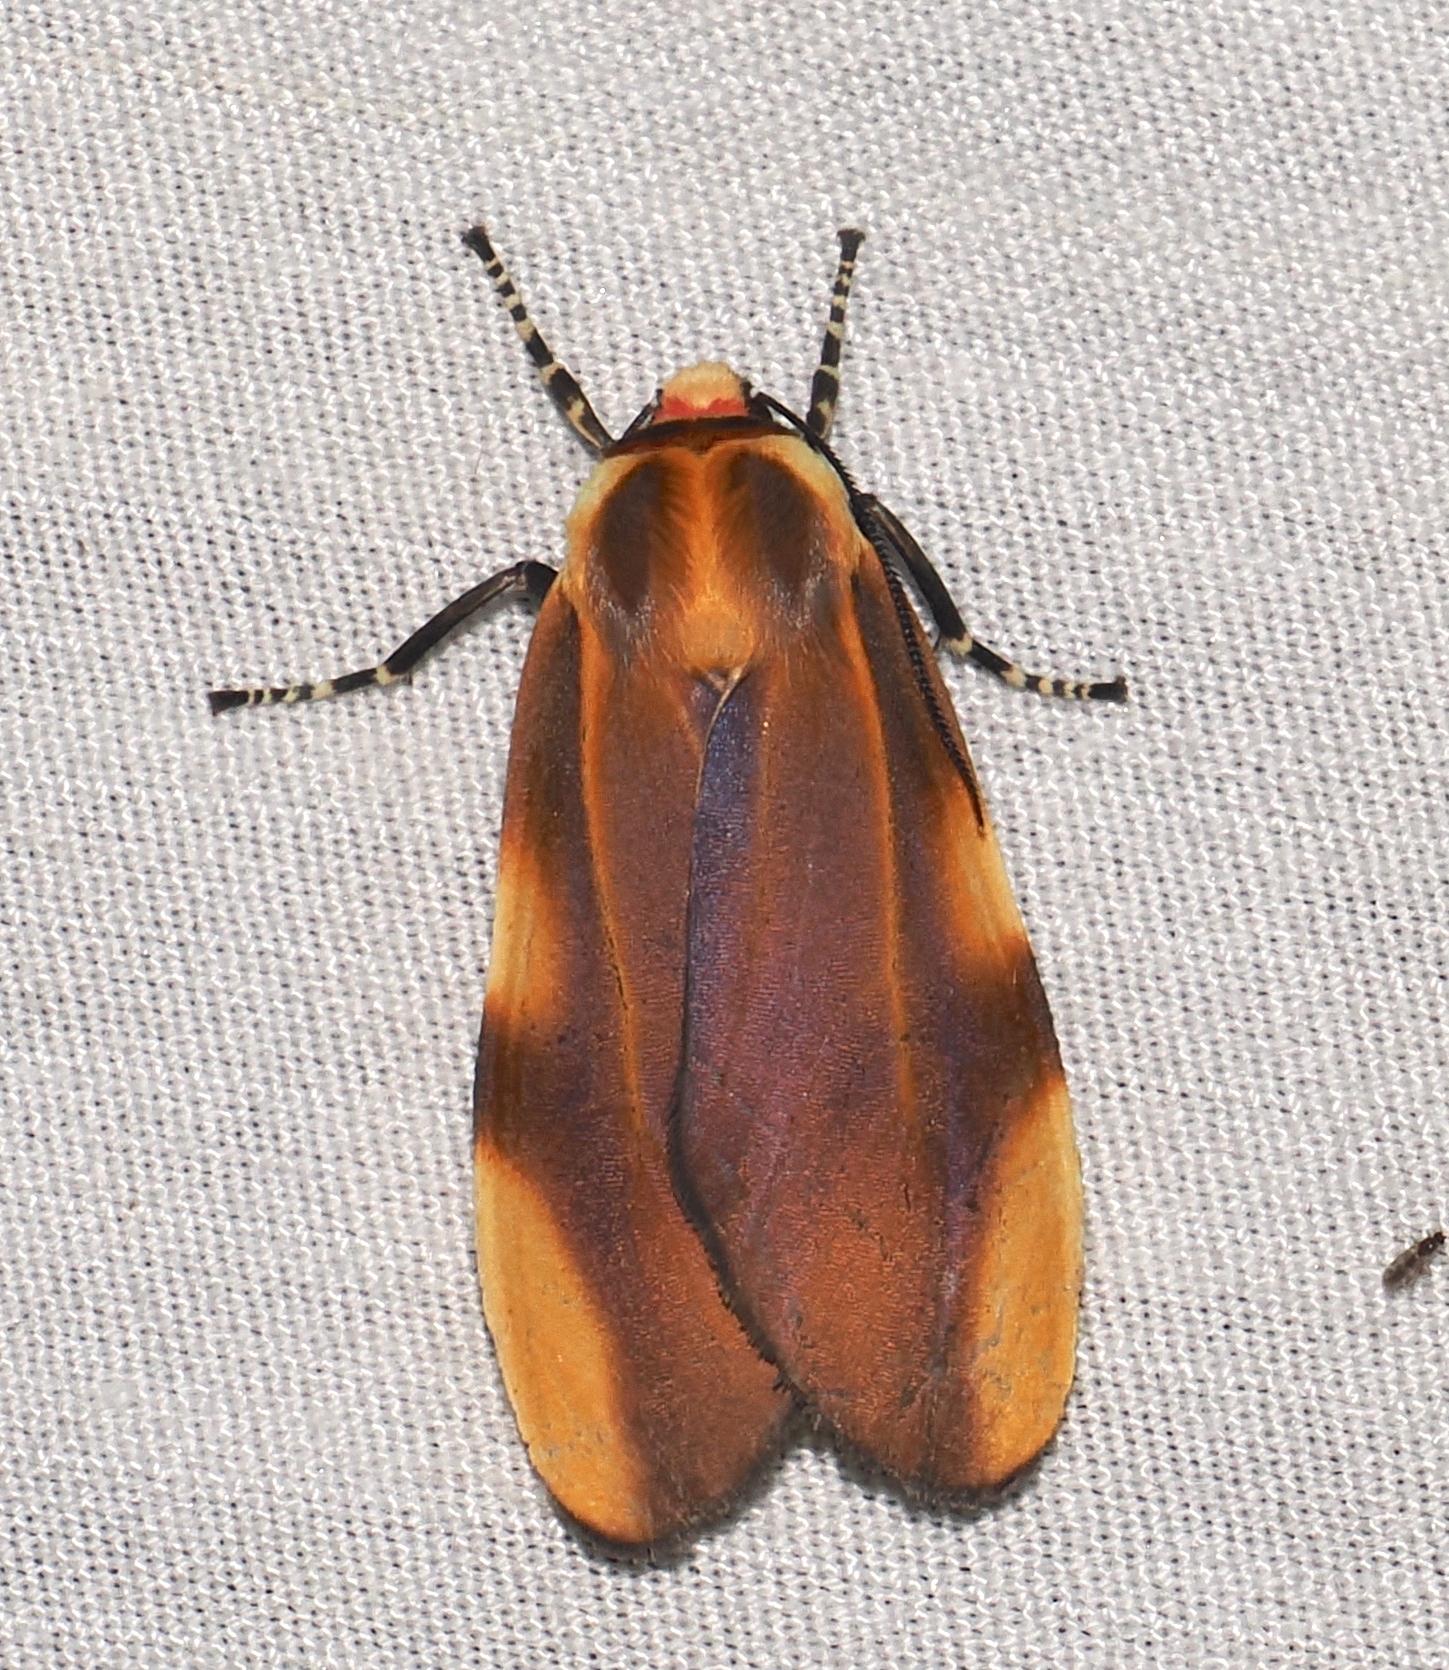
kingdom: Animalia
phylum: Arthropoda
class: Insecta
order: Lepidoptera
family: Erebidae
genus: Aemilia
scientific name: Aemilia crassa
